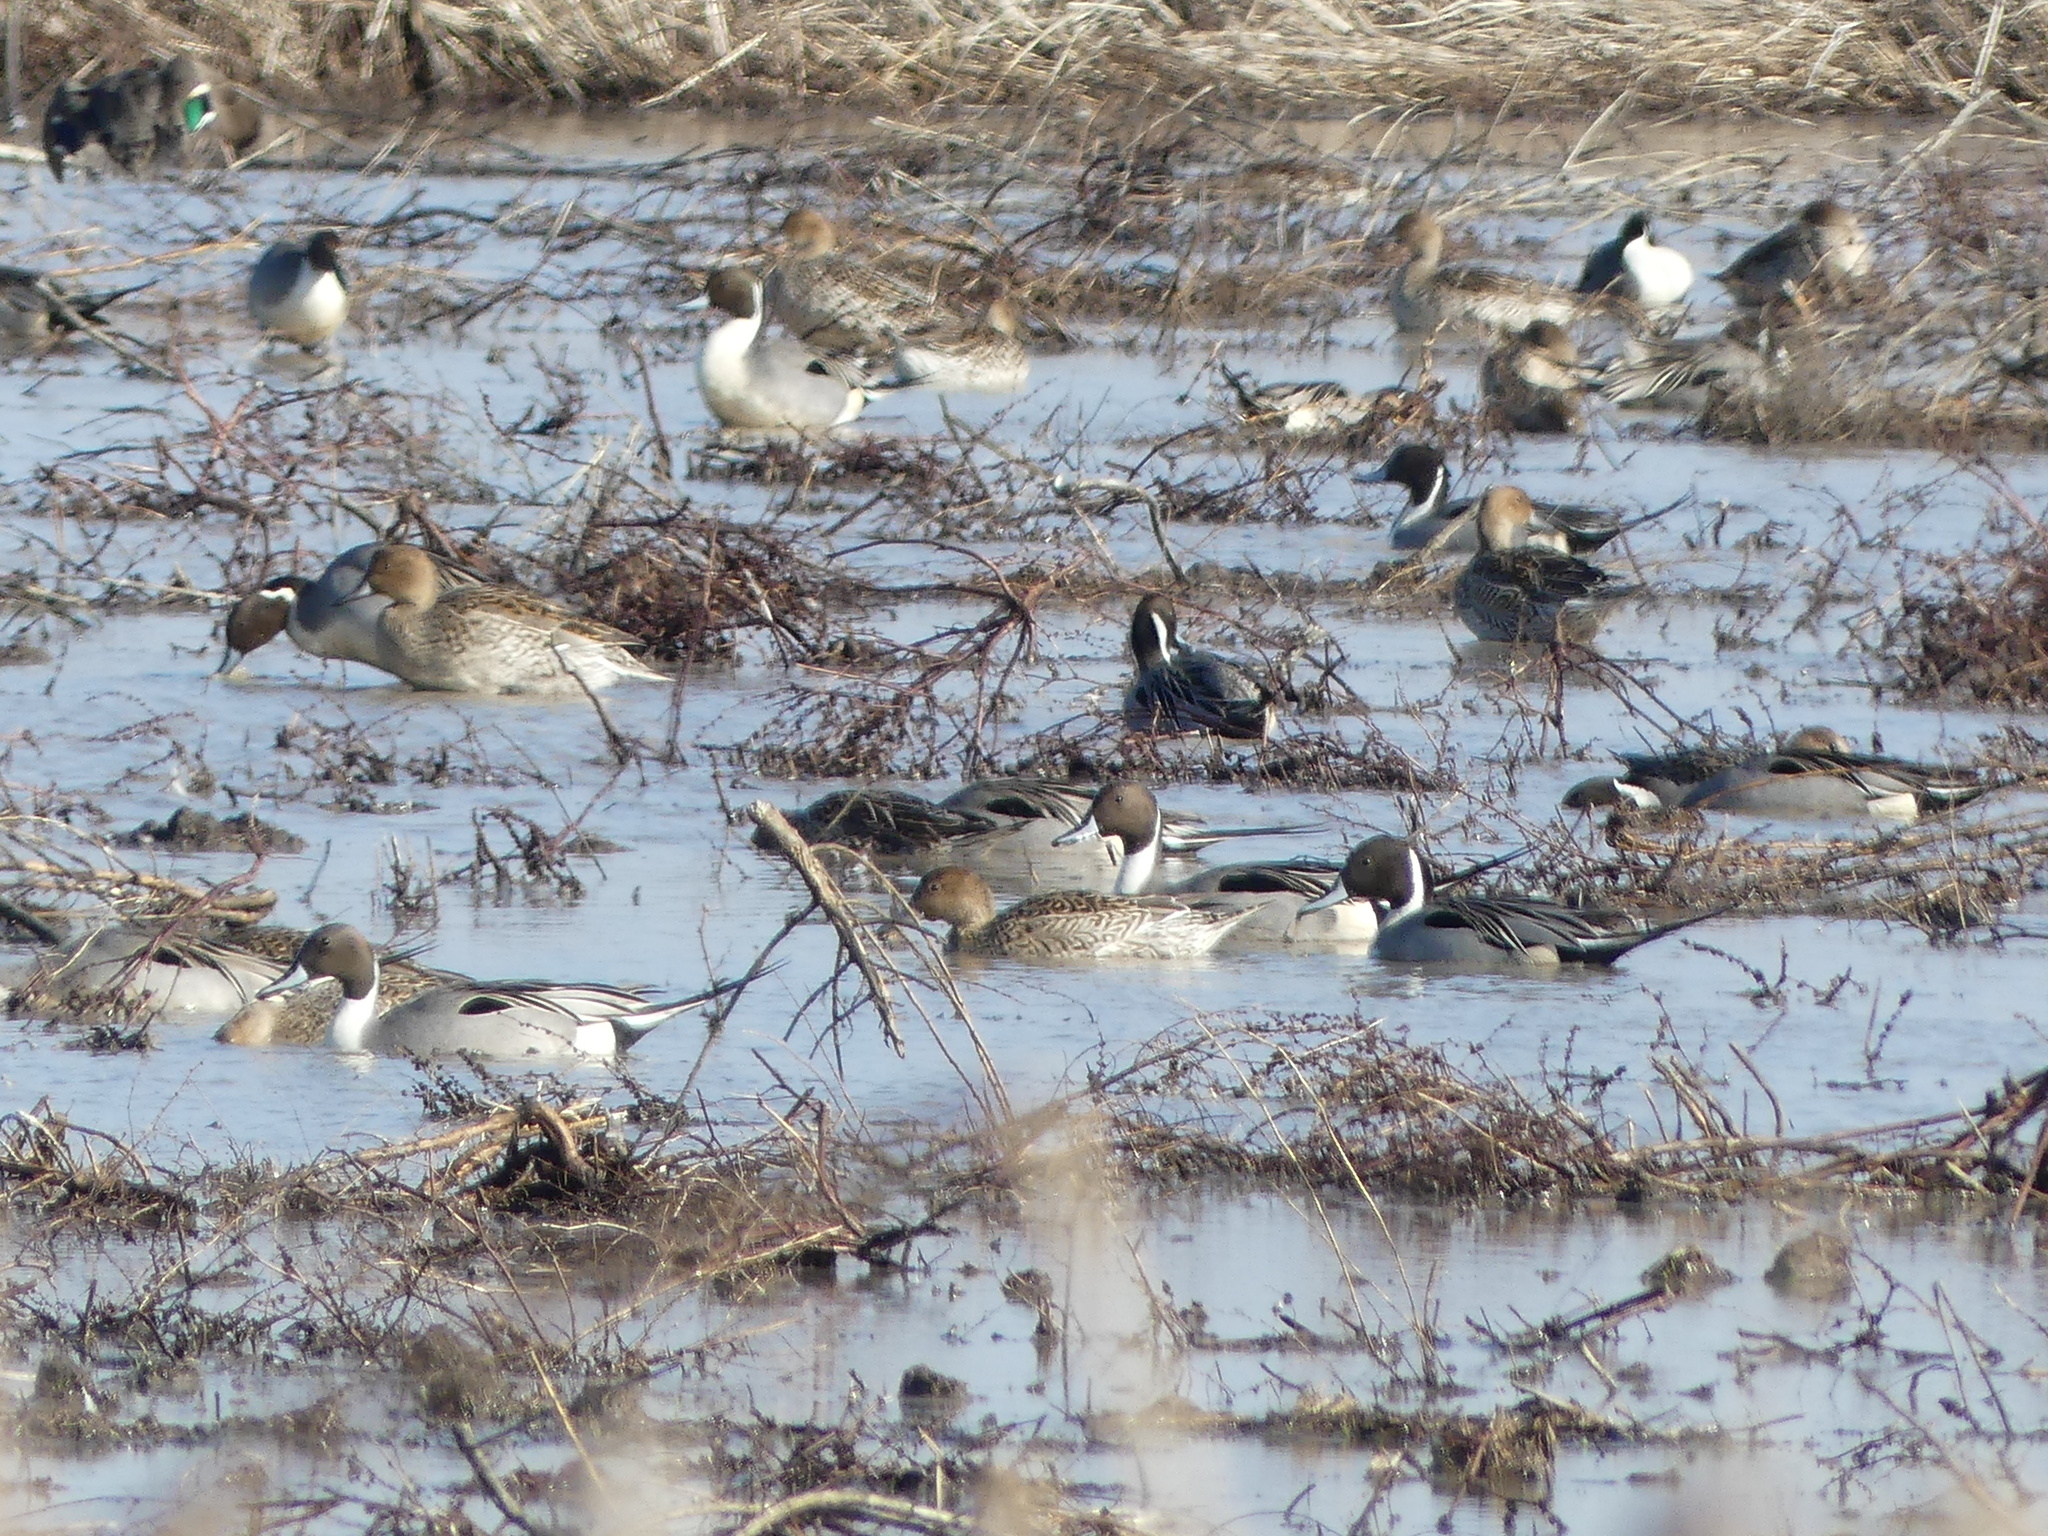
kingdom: Animalia
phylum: Chordata
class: Aves
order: Anseriformes
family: Anatidae
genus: Anas
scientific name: Anas acuta
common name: Northern pintail
